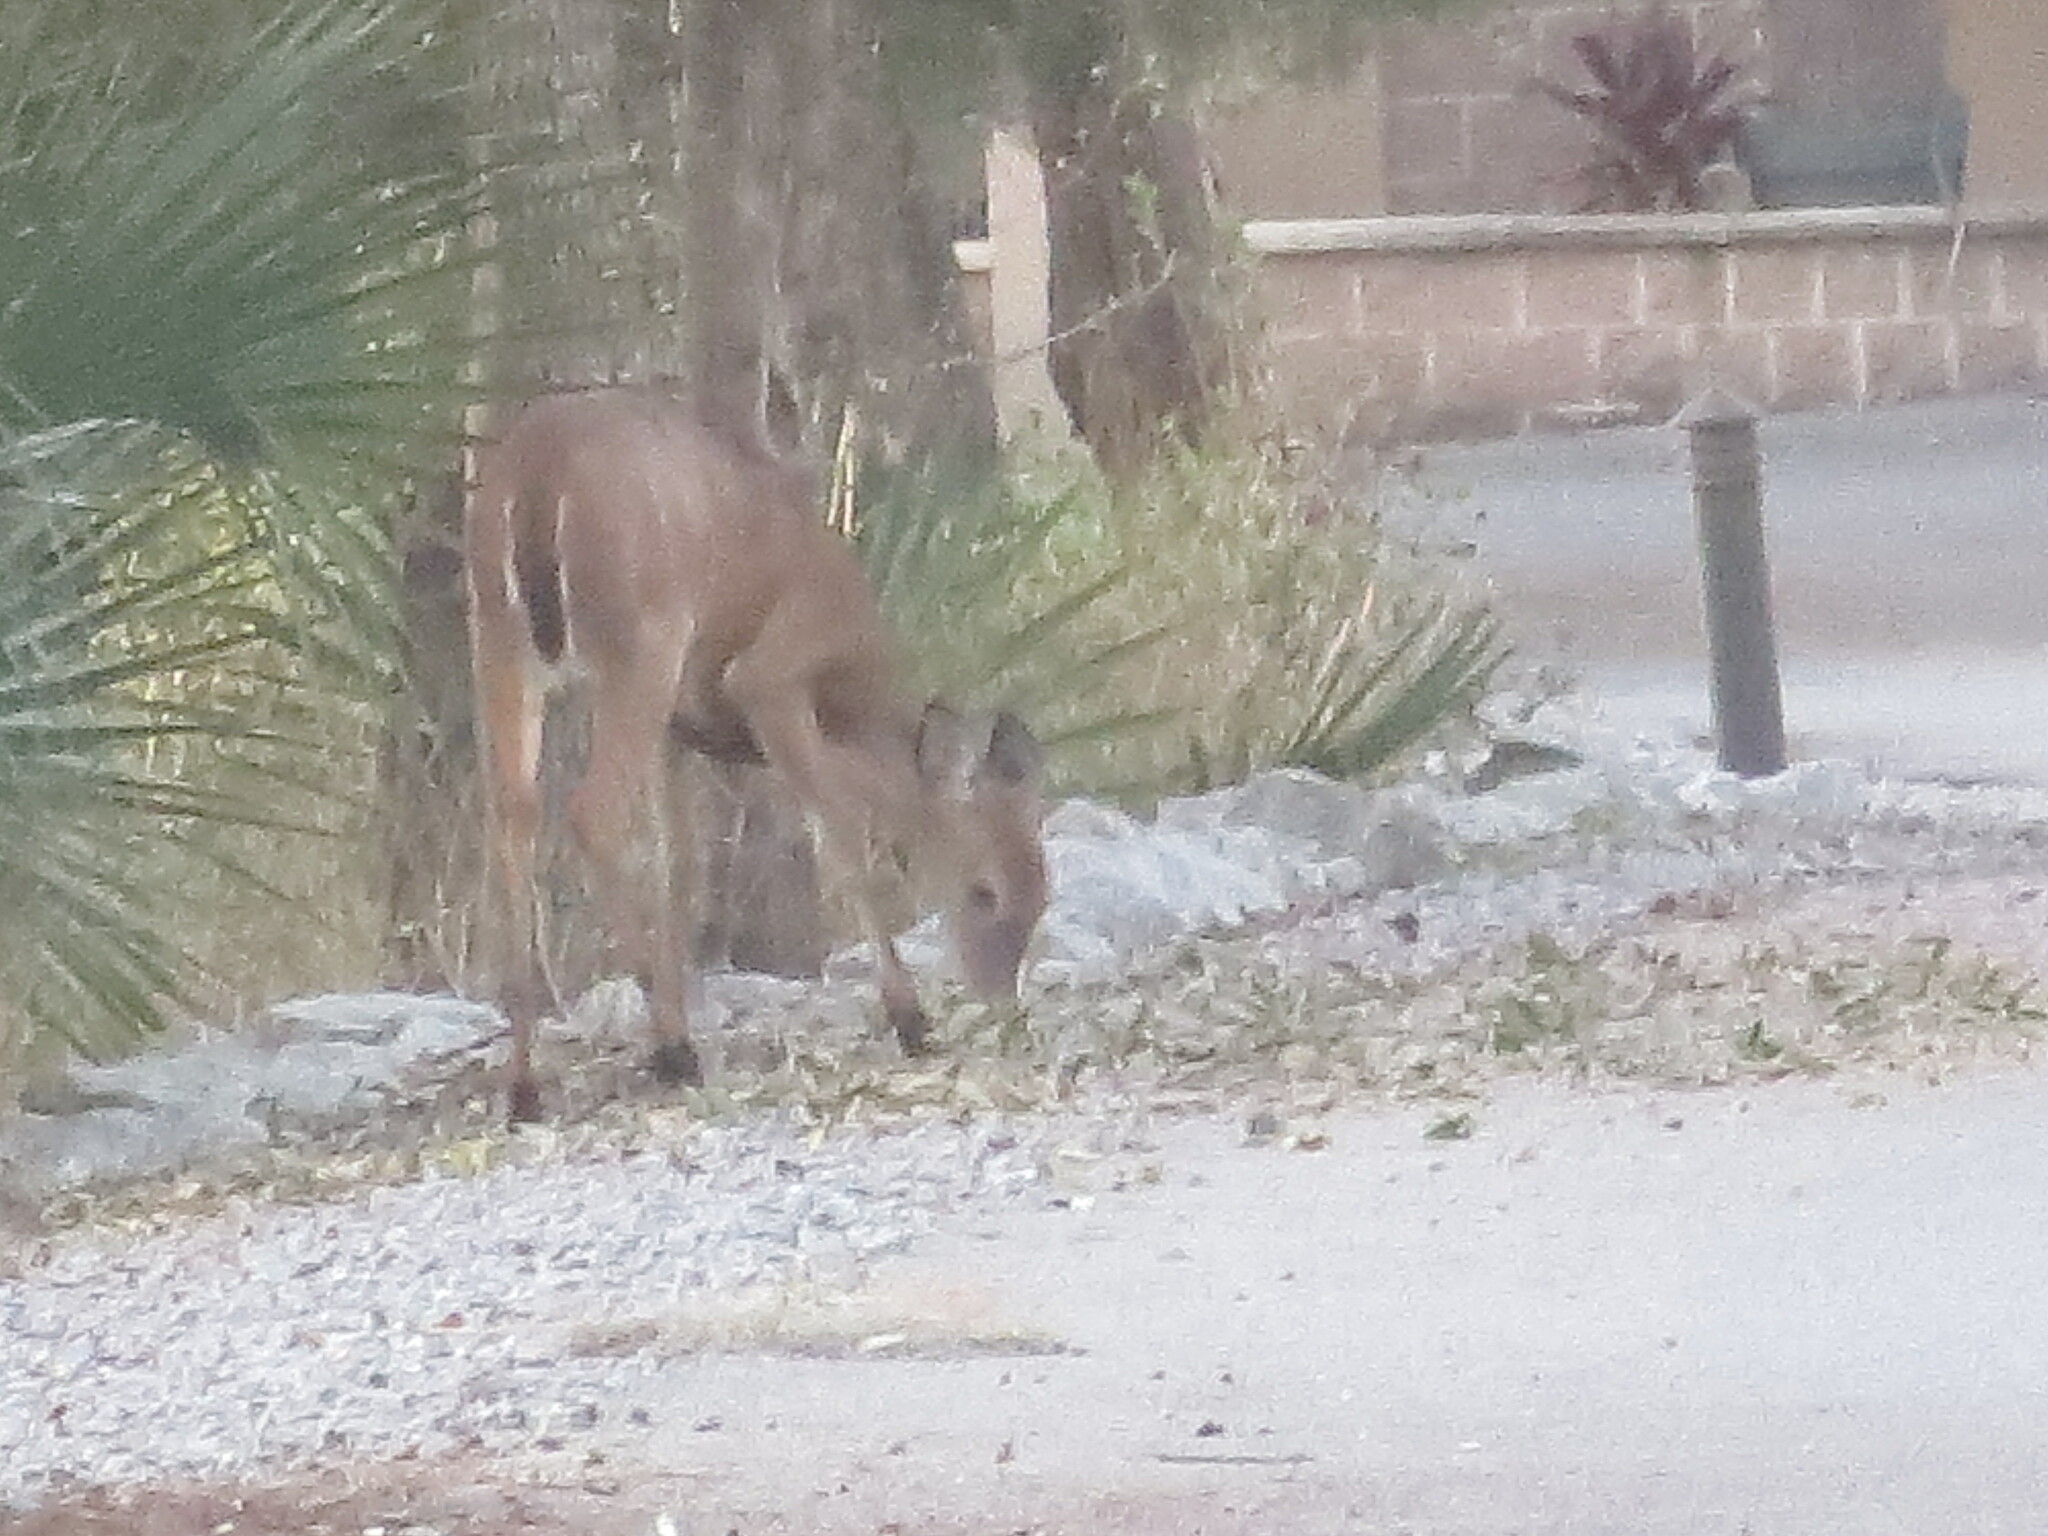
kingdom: Animalia
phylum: Chordata
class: Mammalia
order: Artiodactyla
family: Cervidae
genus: Odocoileus
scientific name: Odocoileus virginianus
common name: White-tailed deer
